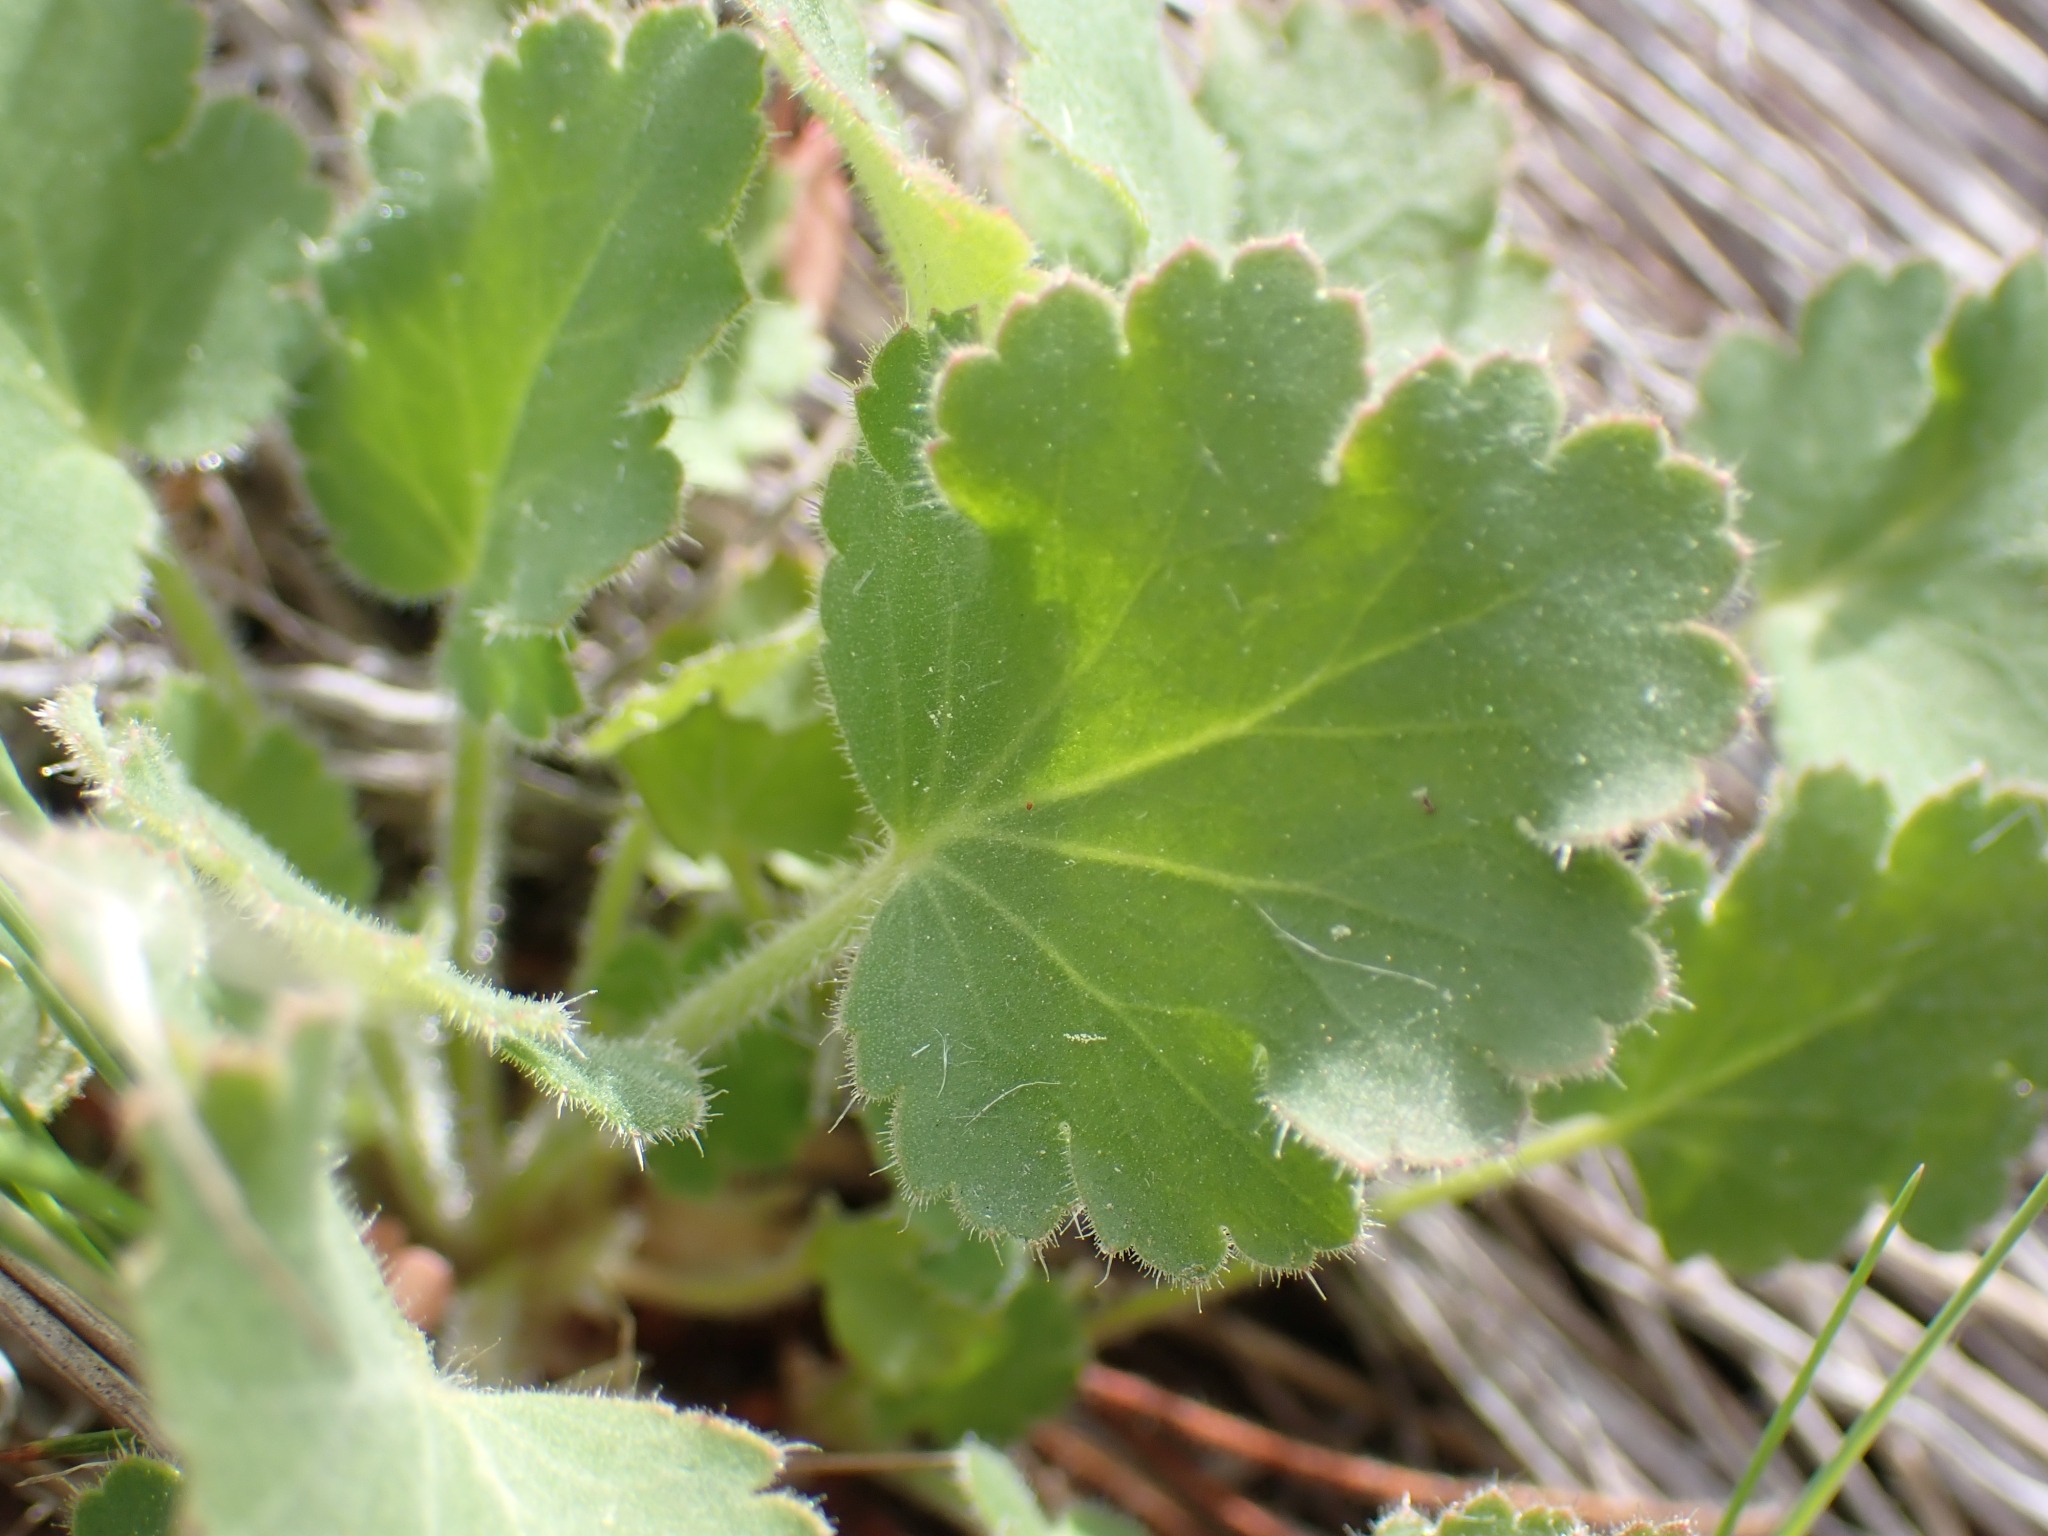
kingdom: Plantae
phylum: Tracheophyta
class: Magnoliopsida
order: Saxifragales
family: Saxifragaceae
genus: Heuchera
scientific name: Heuchera cylindrica
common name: Mat alumroot
